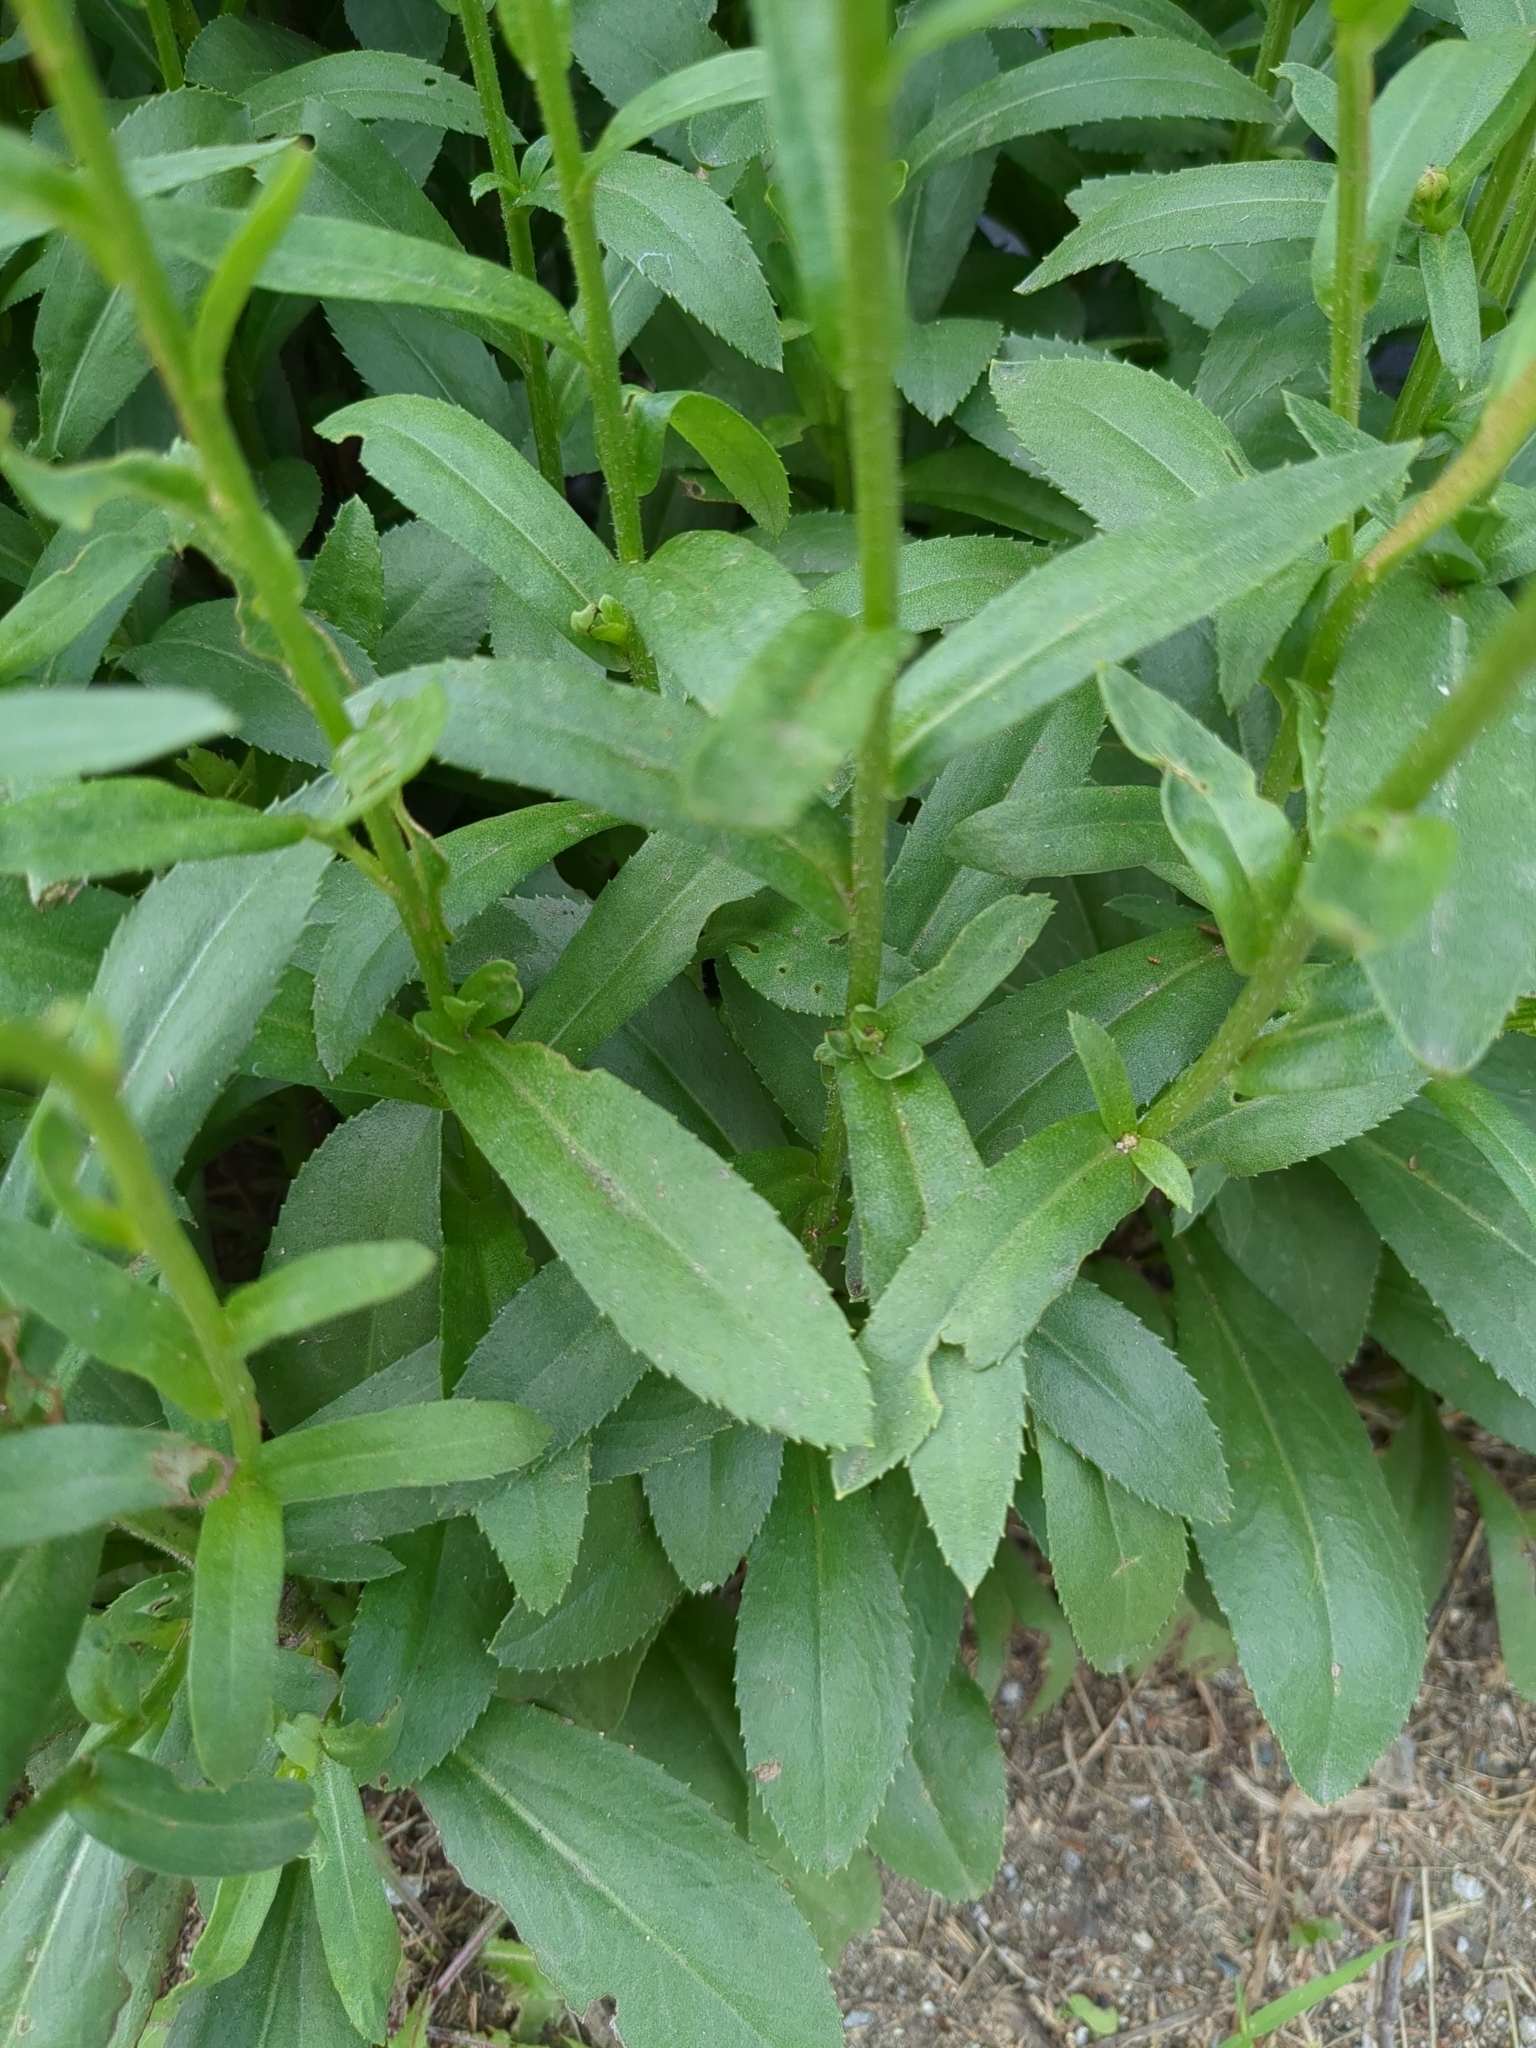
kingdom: Plantae
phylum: Tracheophyta
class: Magnoliopsida
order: Asterales
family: Asteraceae
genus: Leucanthemum
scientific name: Leucanthemum maximum
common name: Max chrysanthemum
